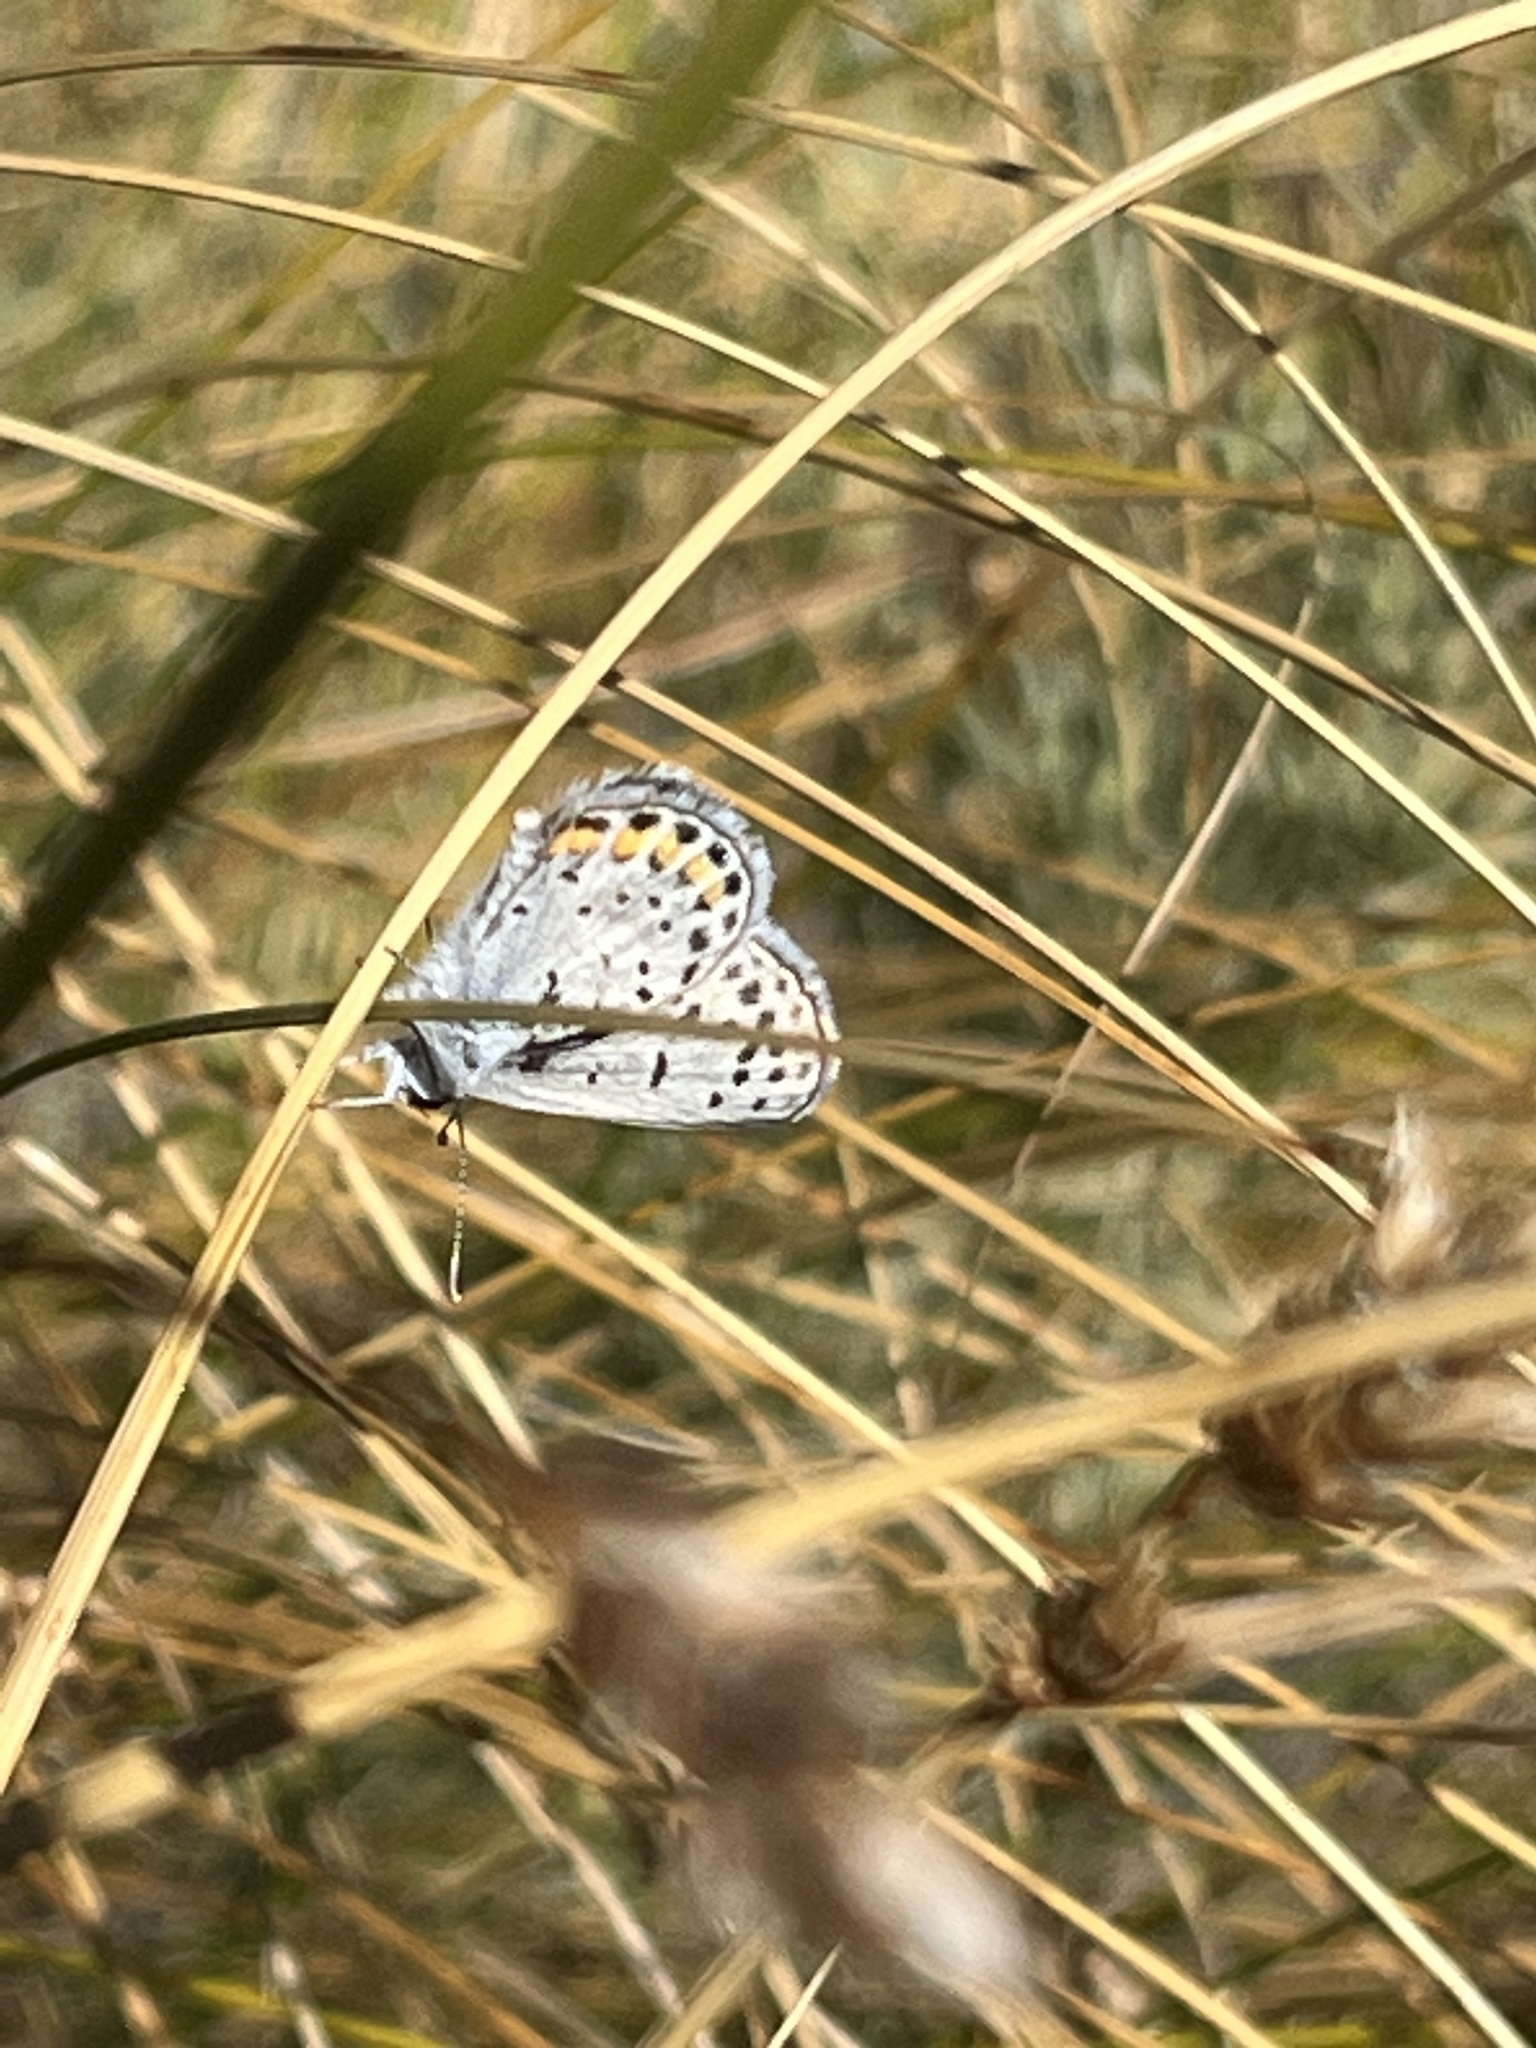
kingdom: Animalia
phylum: Arthropoda
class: Insecta
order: Lepidoptera
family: Lycaenidae
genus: Icaricia
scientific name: Icaricia acmon
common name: Acmon blue
